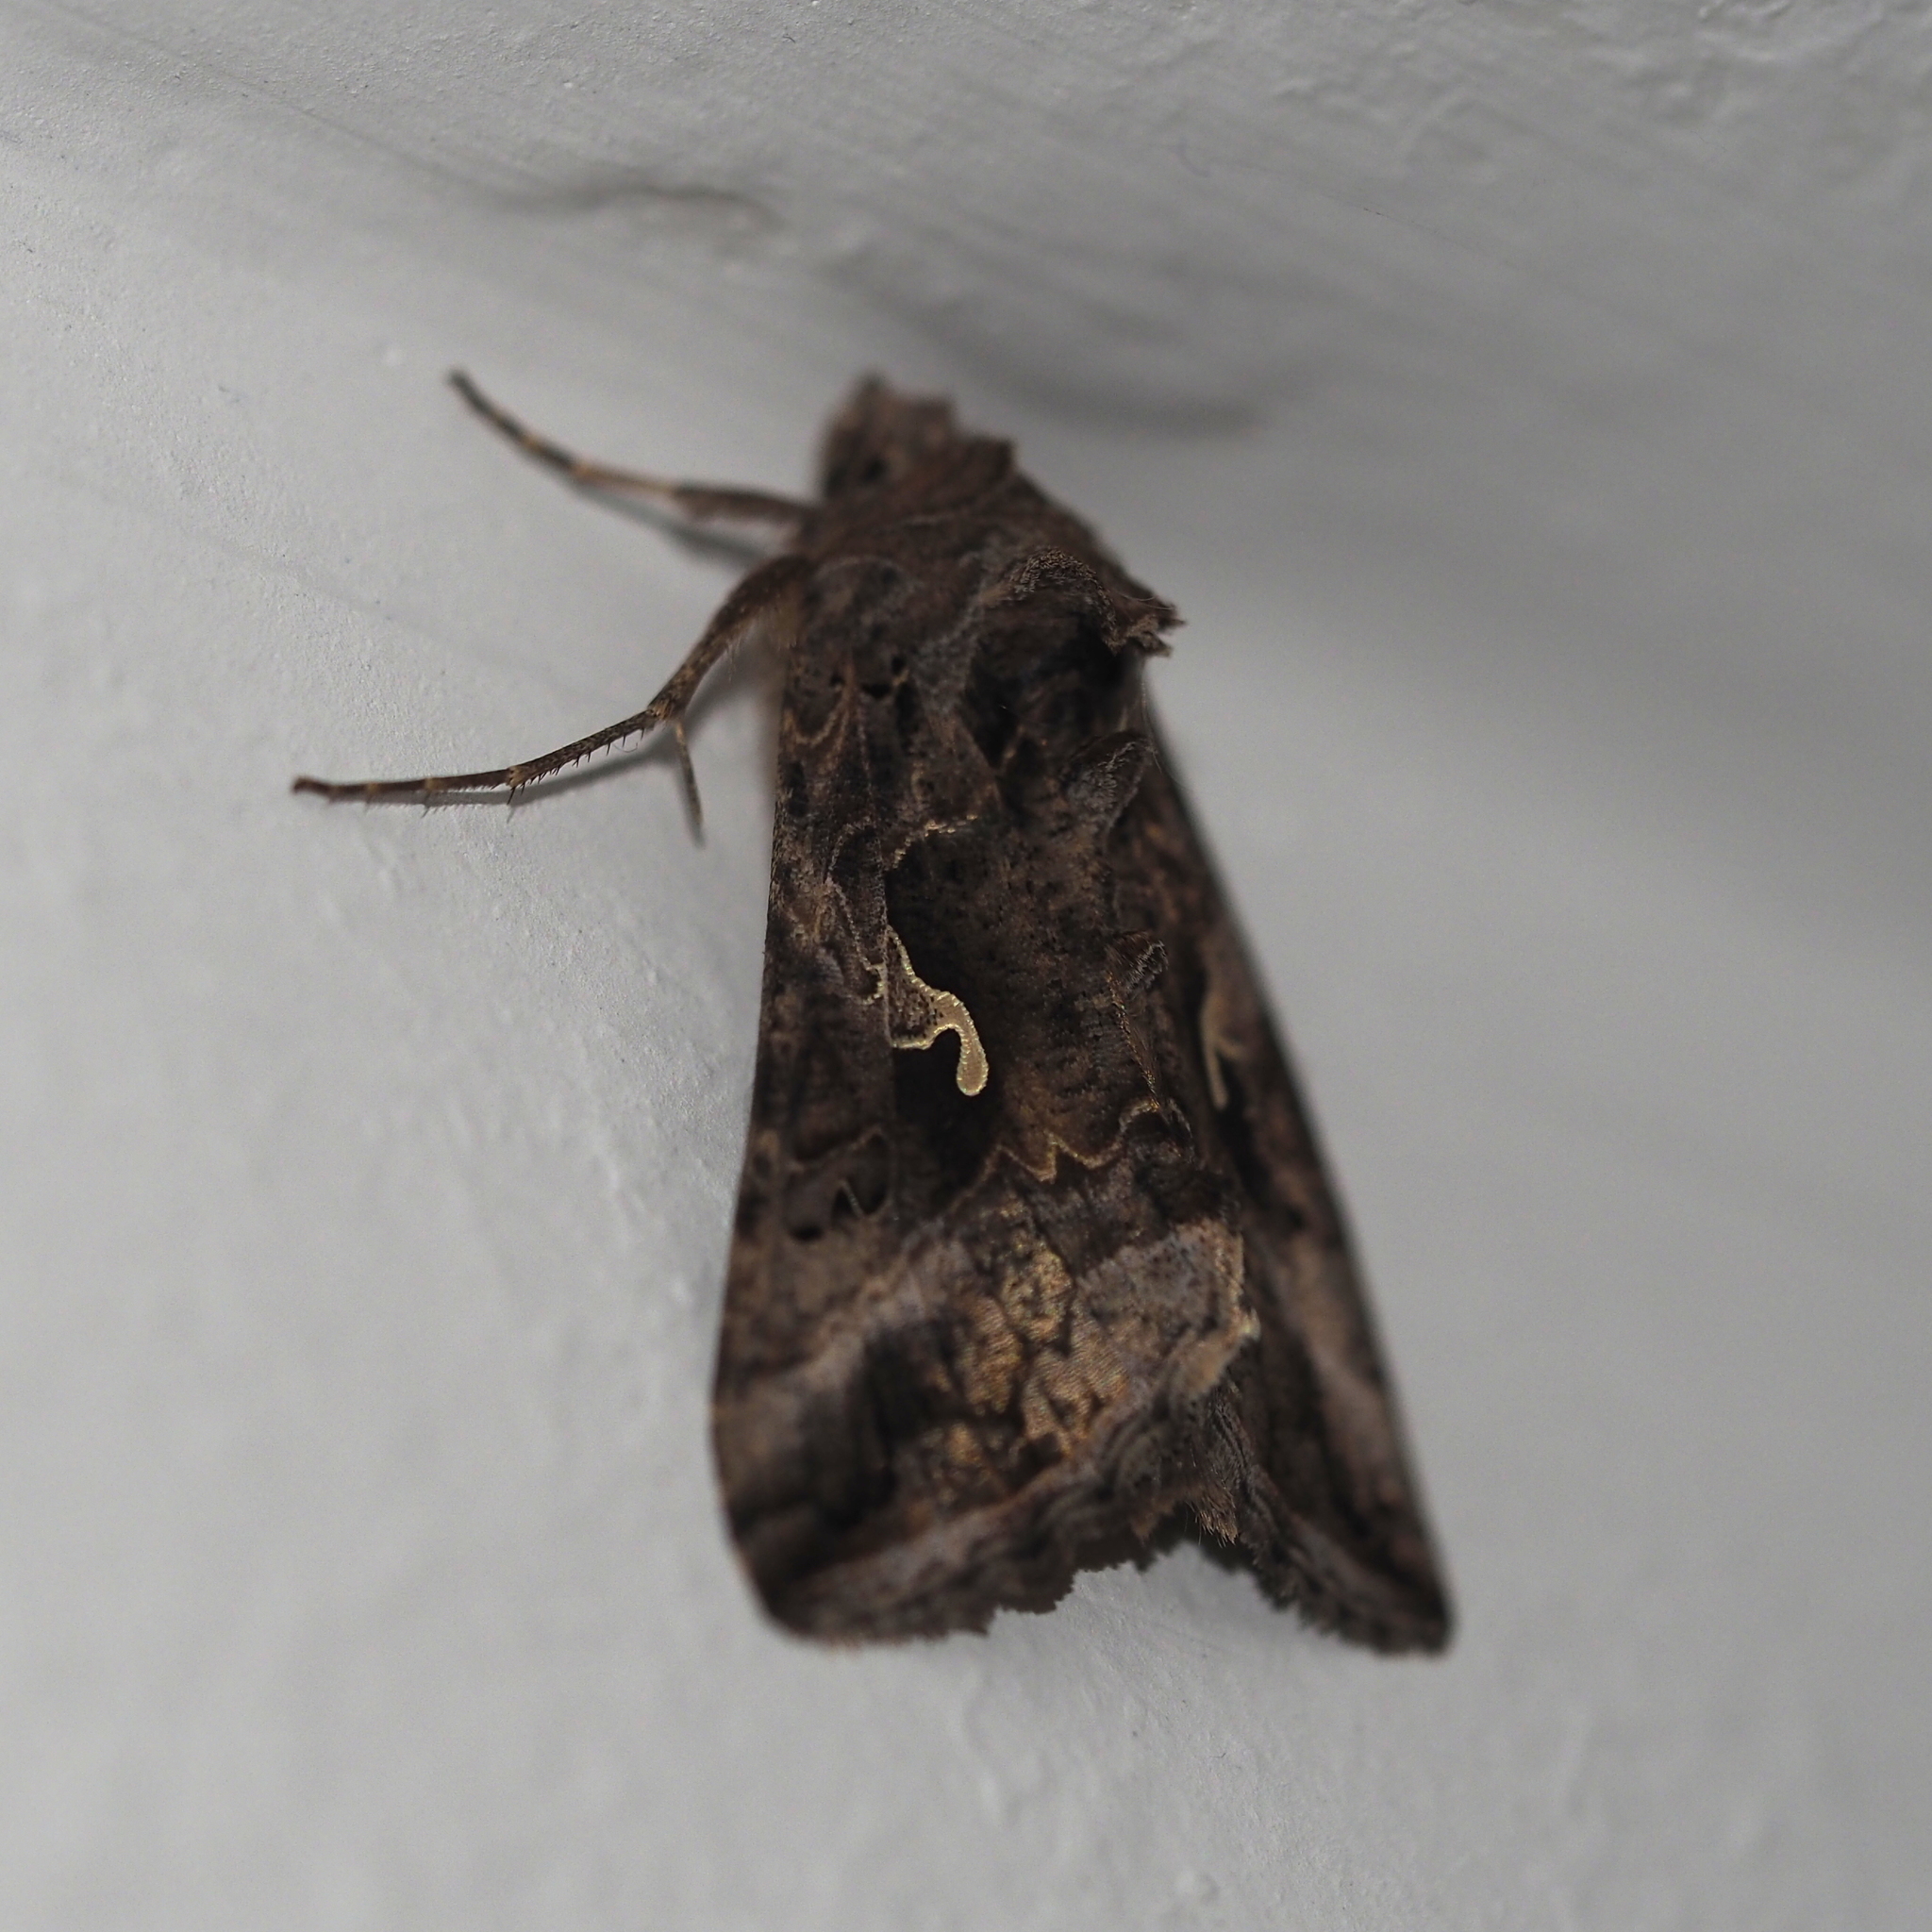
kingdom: Animalia
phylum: Arthropoda
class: Insecta
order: Lepidoptera
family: Noctuidae
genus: Autographa
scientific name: Autographa gamma
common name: Silver y
